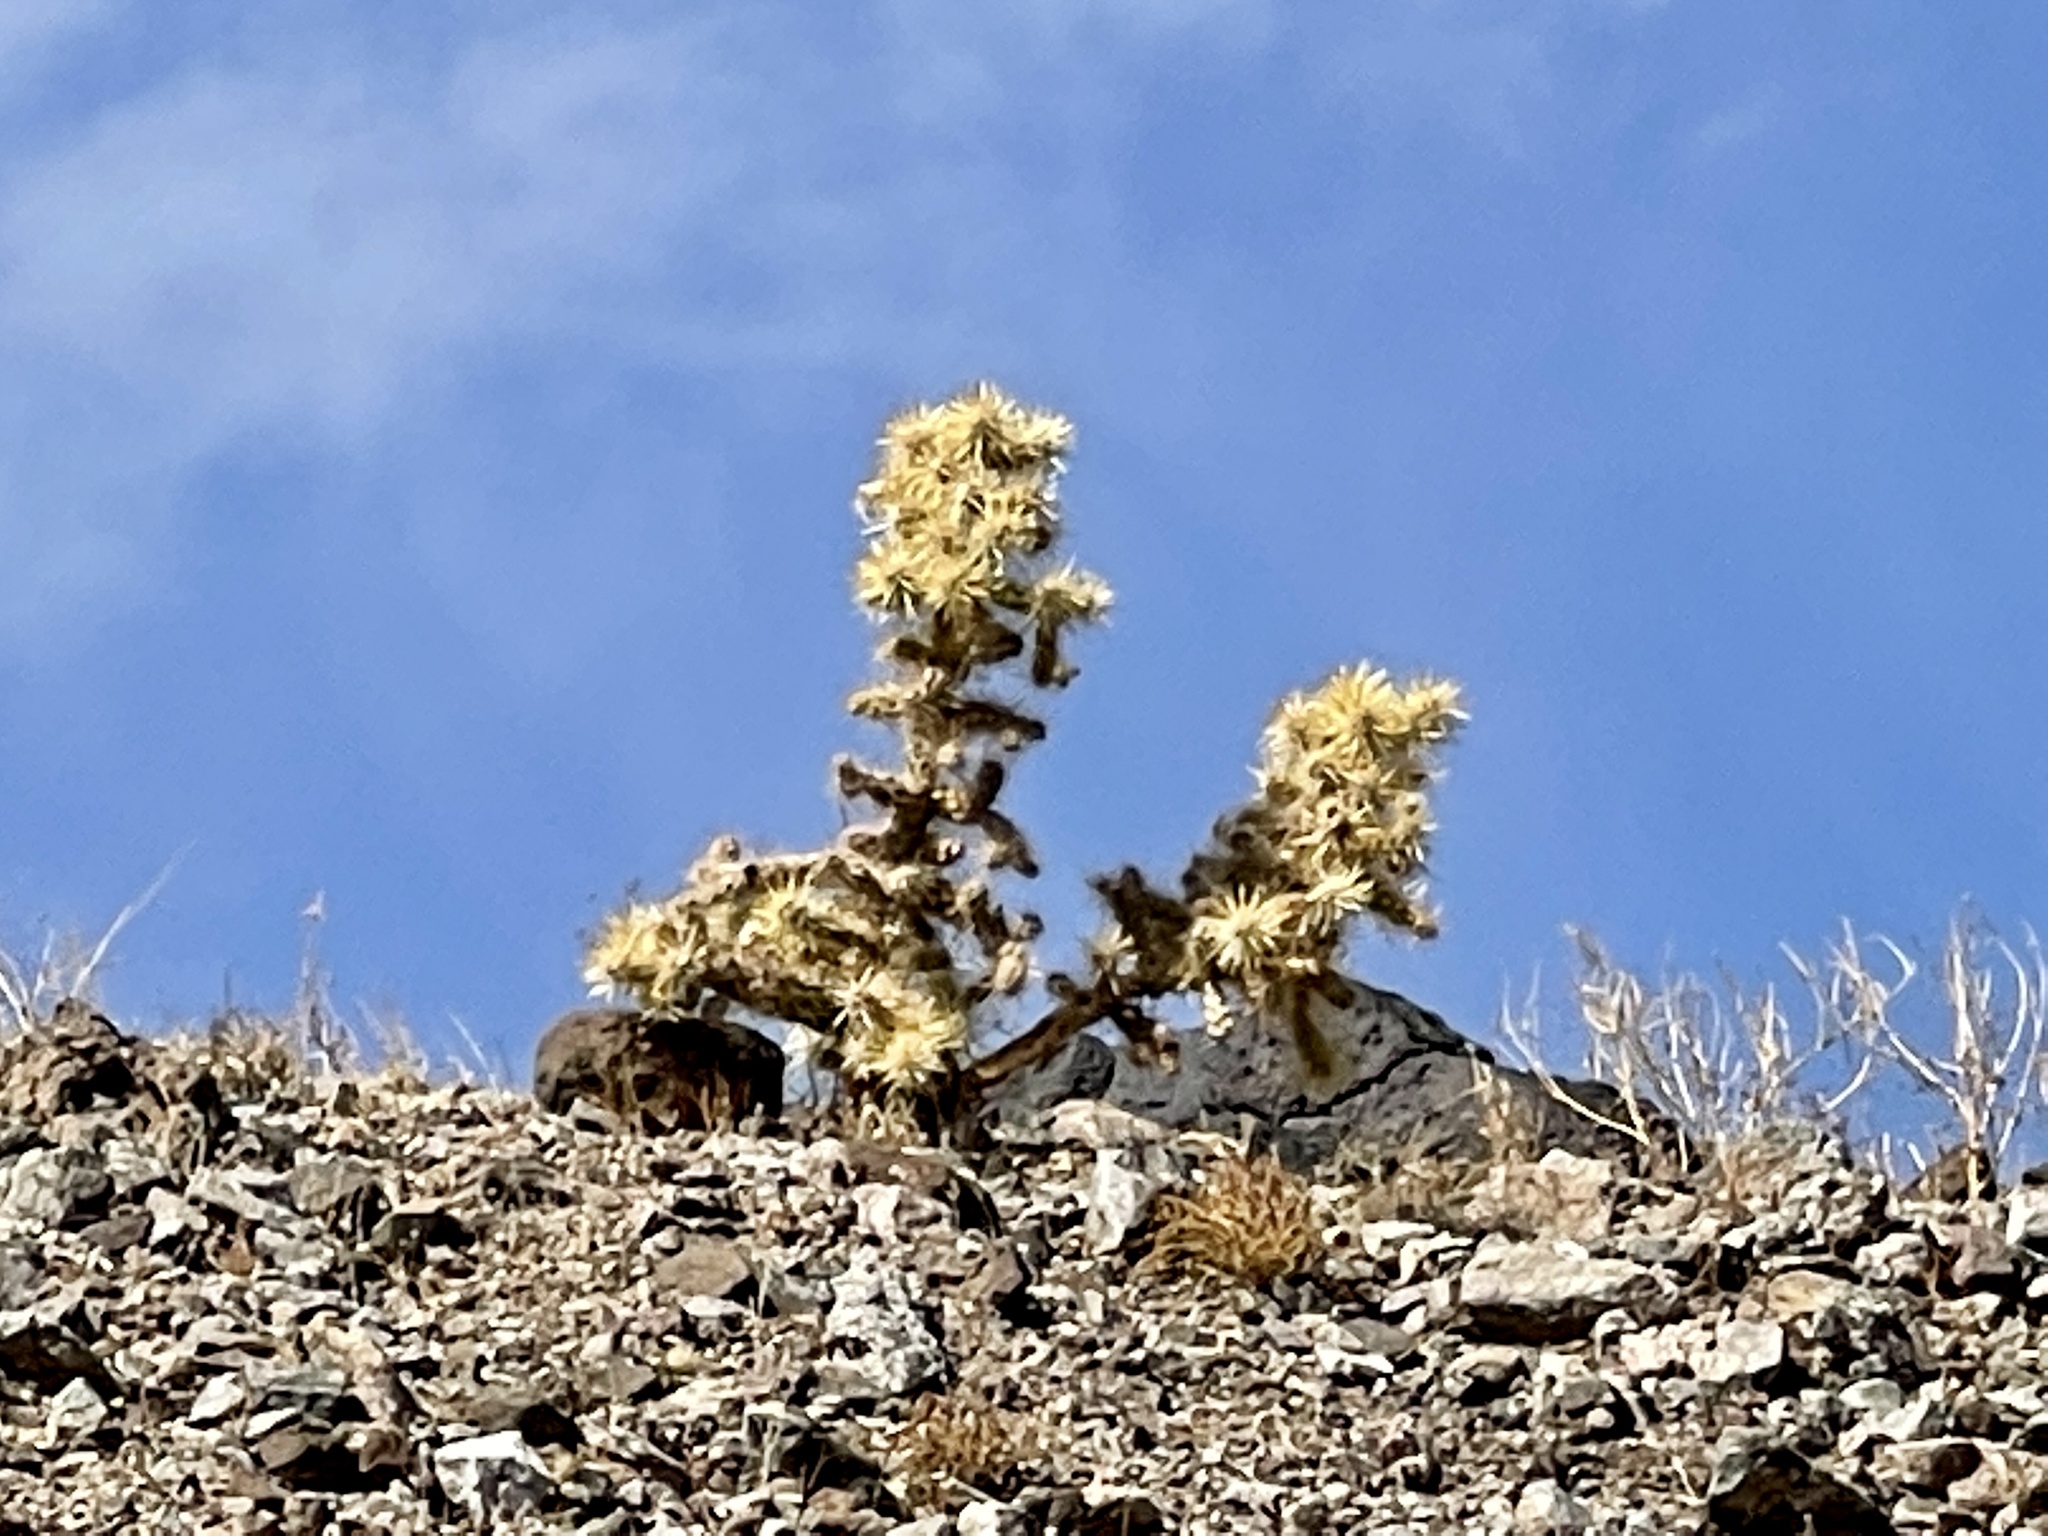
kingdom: Plantae
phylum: Tracheophyta
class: Magnoliopsida
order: Caryophyllales
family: Cactaceae
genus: Cylindropuntia
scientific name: Cylindropuntia echinocarpa
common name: Ground cholla
